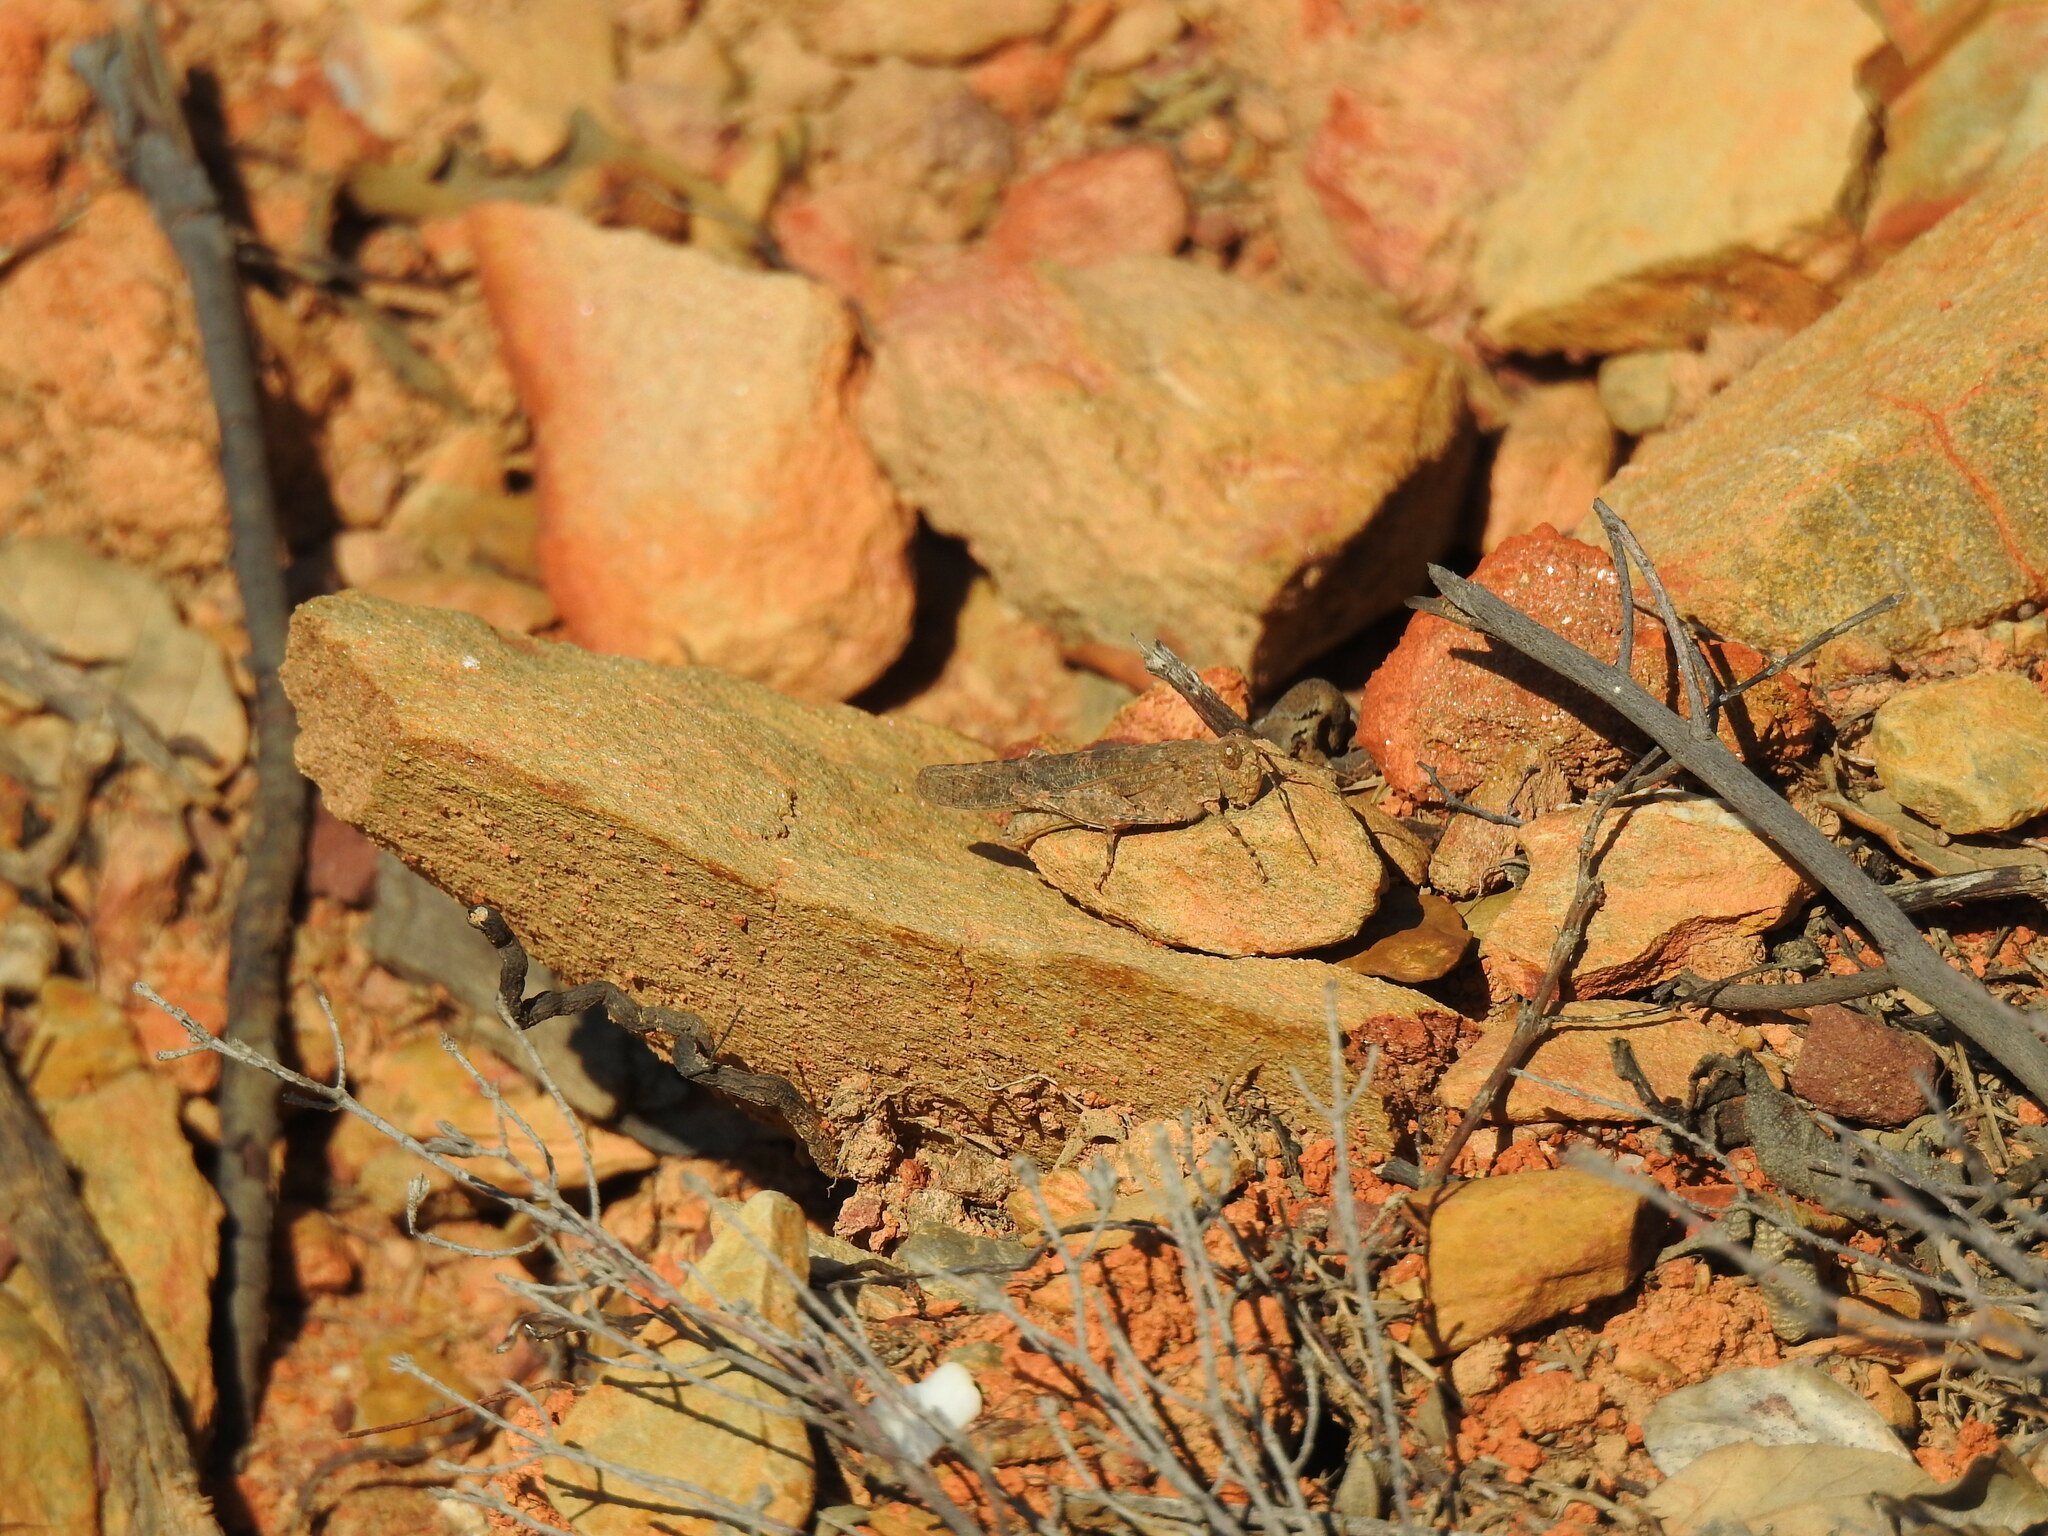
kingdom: Animalia
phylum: Arthropoda
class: Insecta
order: Orthoptera
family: Acrididae
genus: Sphingonotus
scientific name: Sphingonotus rubescens
